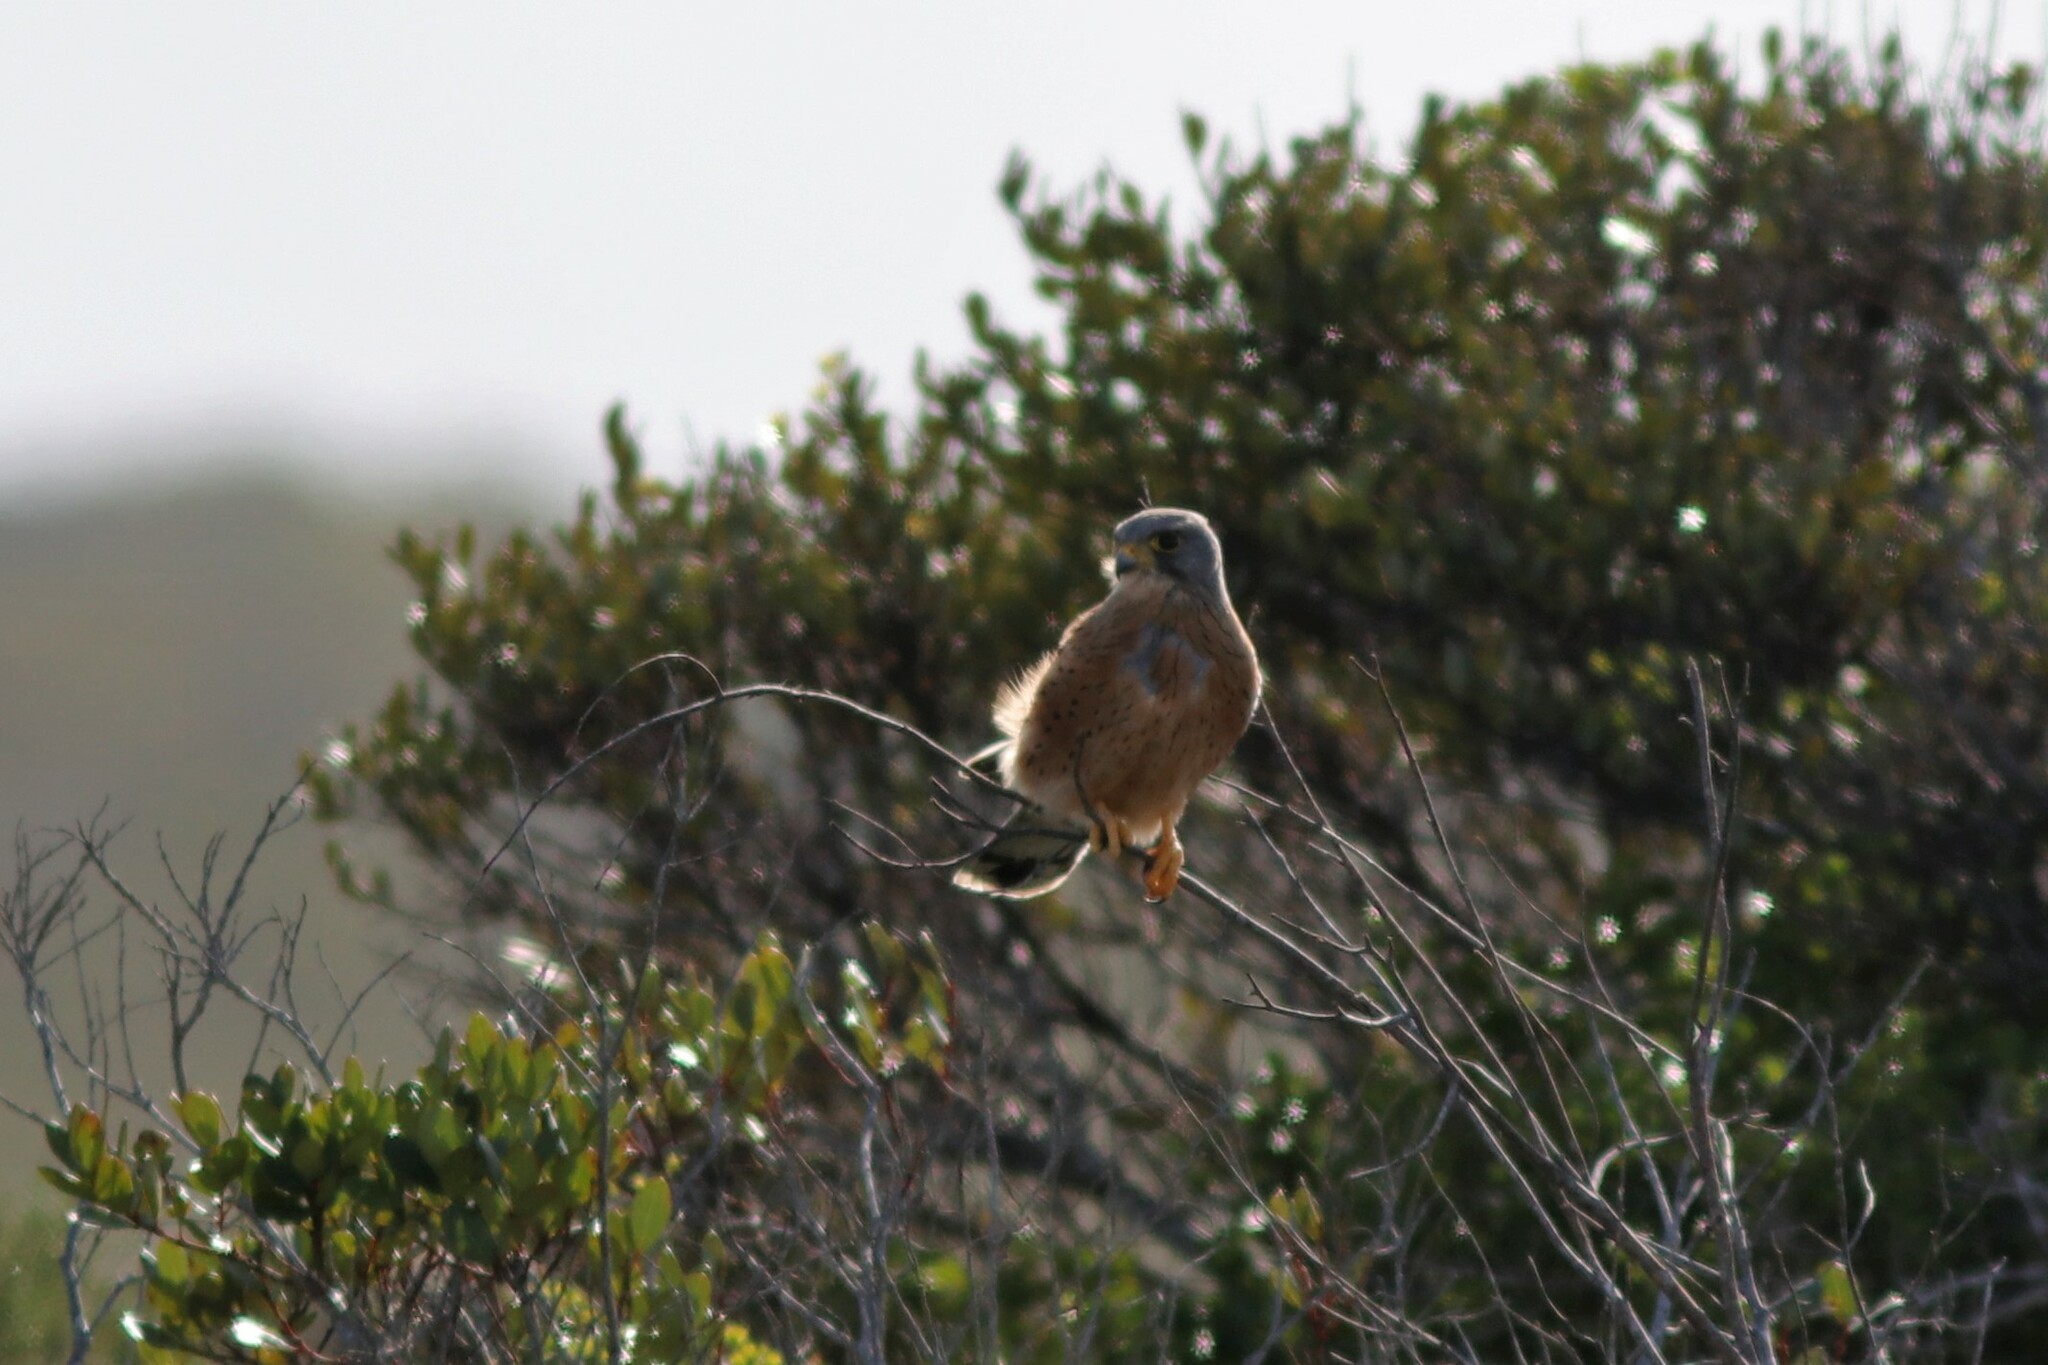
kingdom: Animalia
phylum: Chordata
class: Aves
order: Falconiformes
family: Falconidae
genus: Falco
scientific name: Falco rupicolus
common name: Rock kestrel
